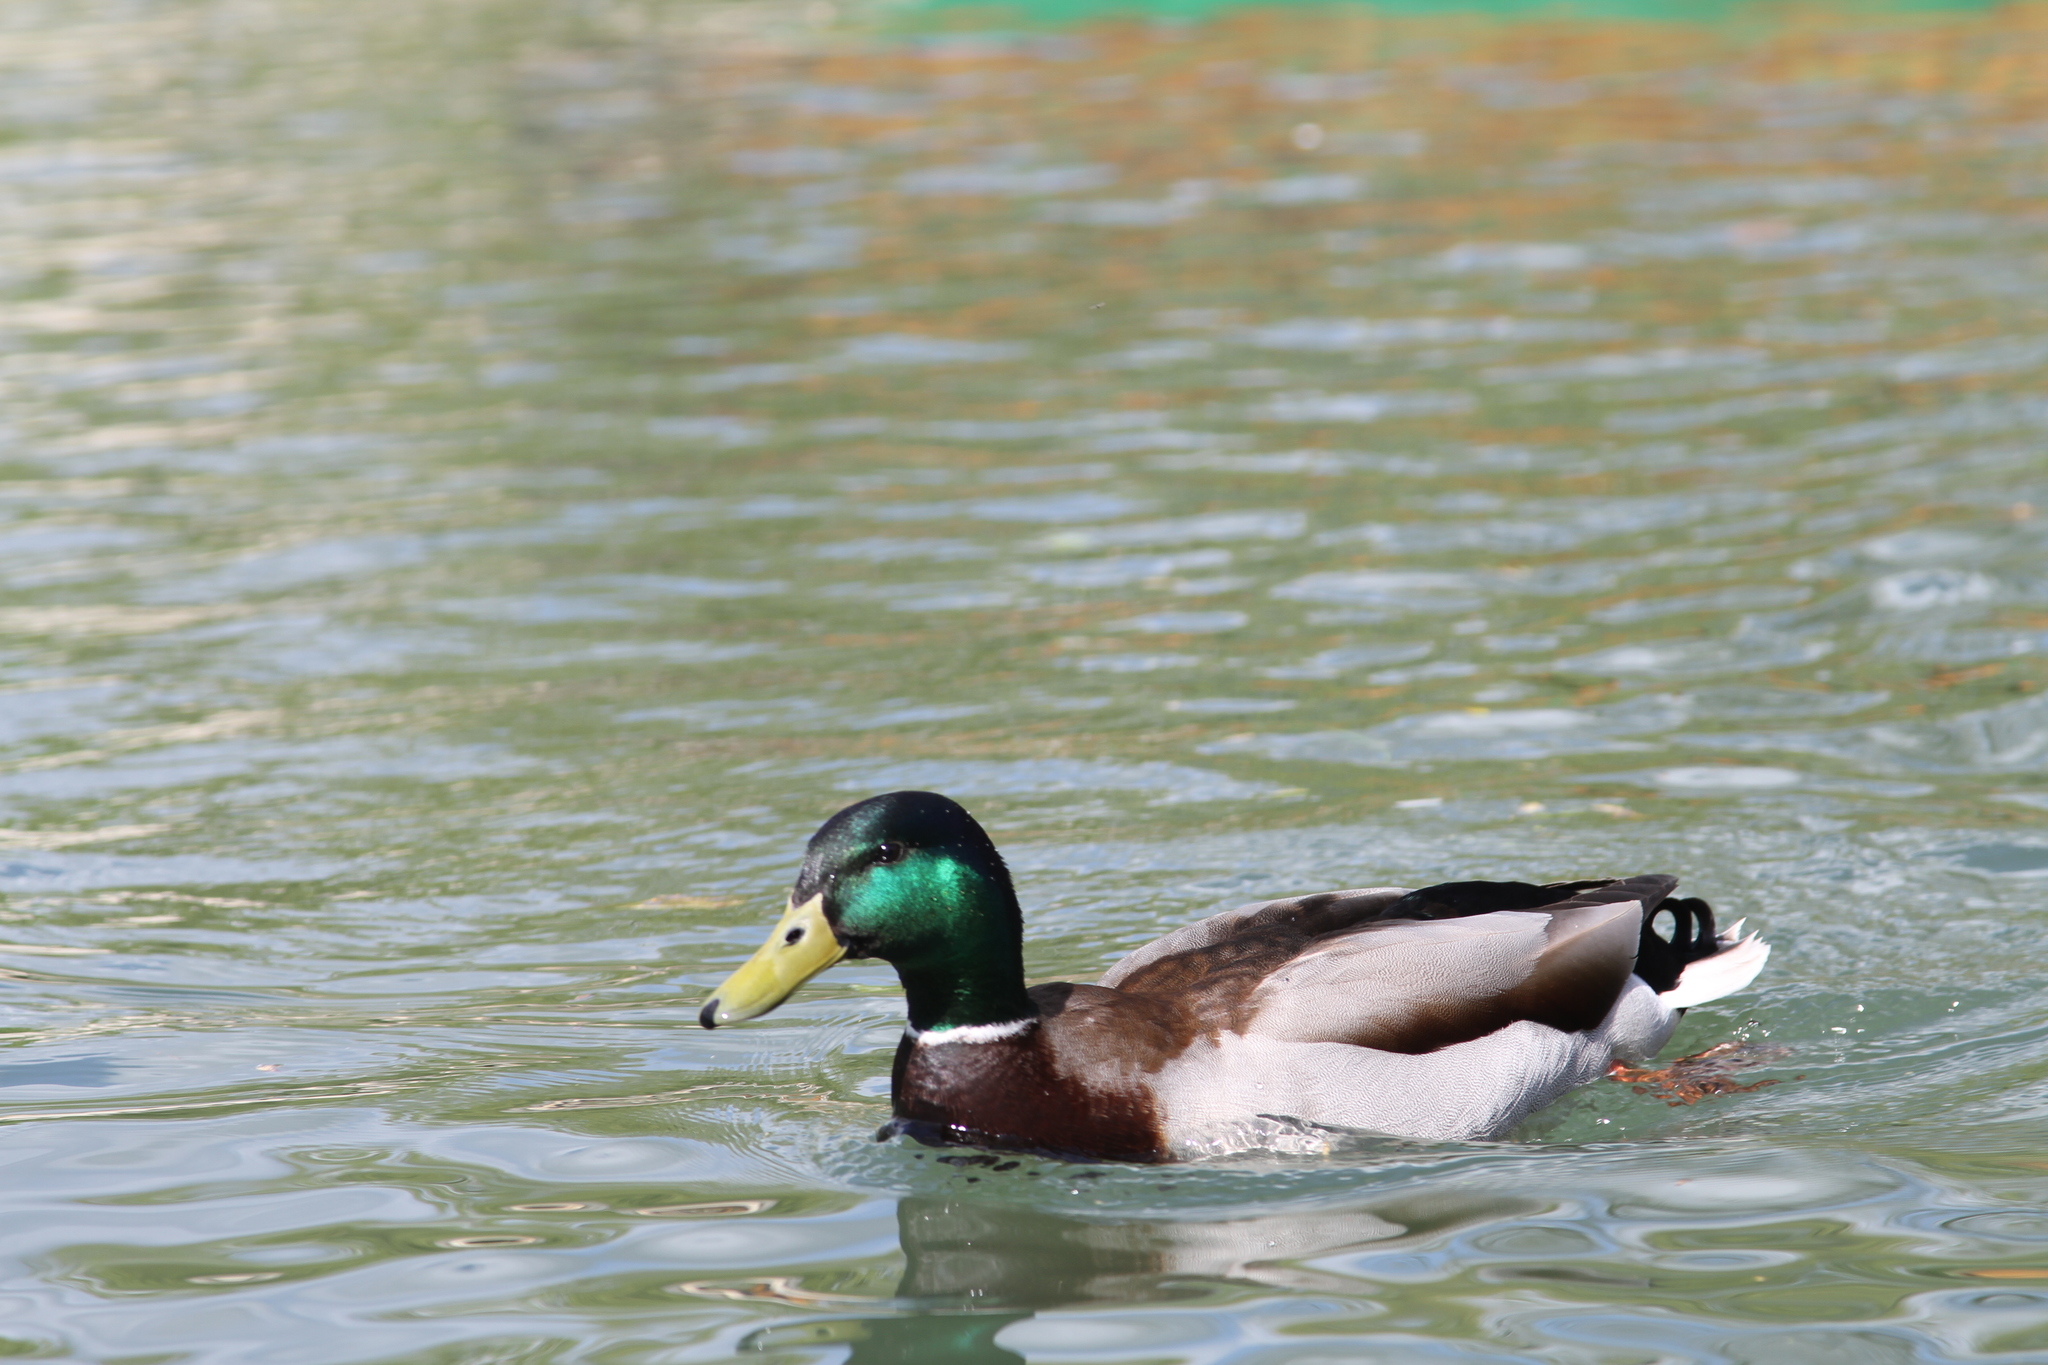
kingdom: Animalia
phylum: Chordata
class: Aves
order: Anseriformes
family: Anatidae
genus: Anas
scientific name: Anas platyrhynchos
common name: Mallard
